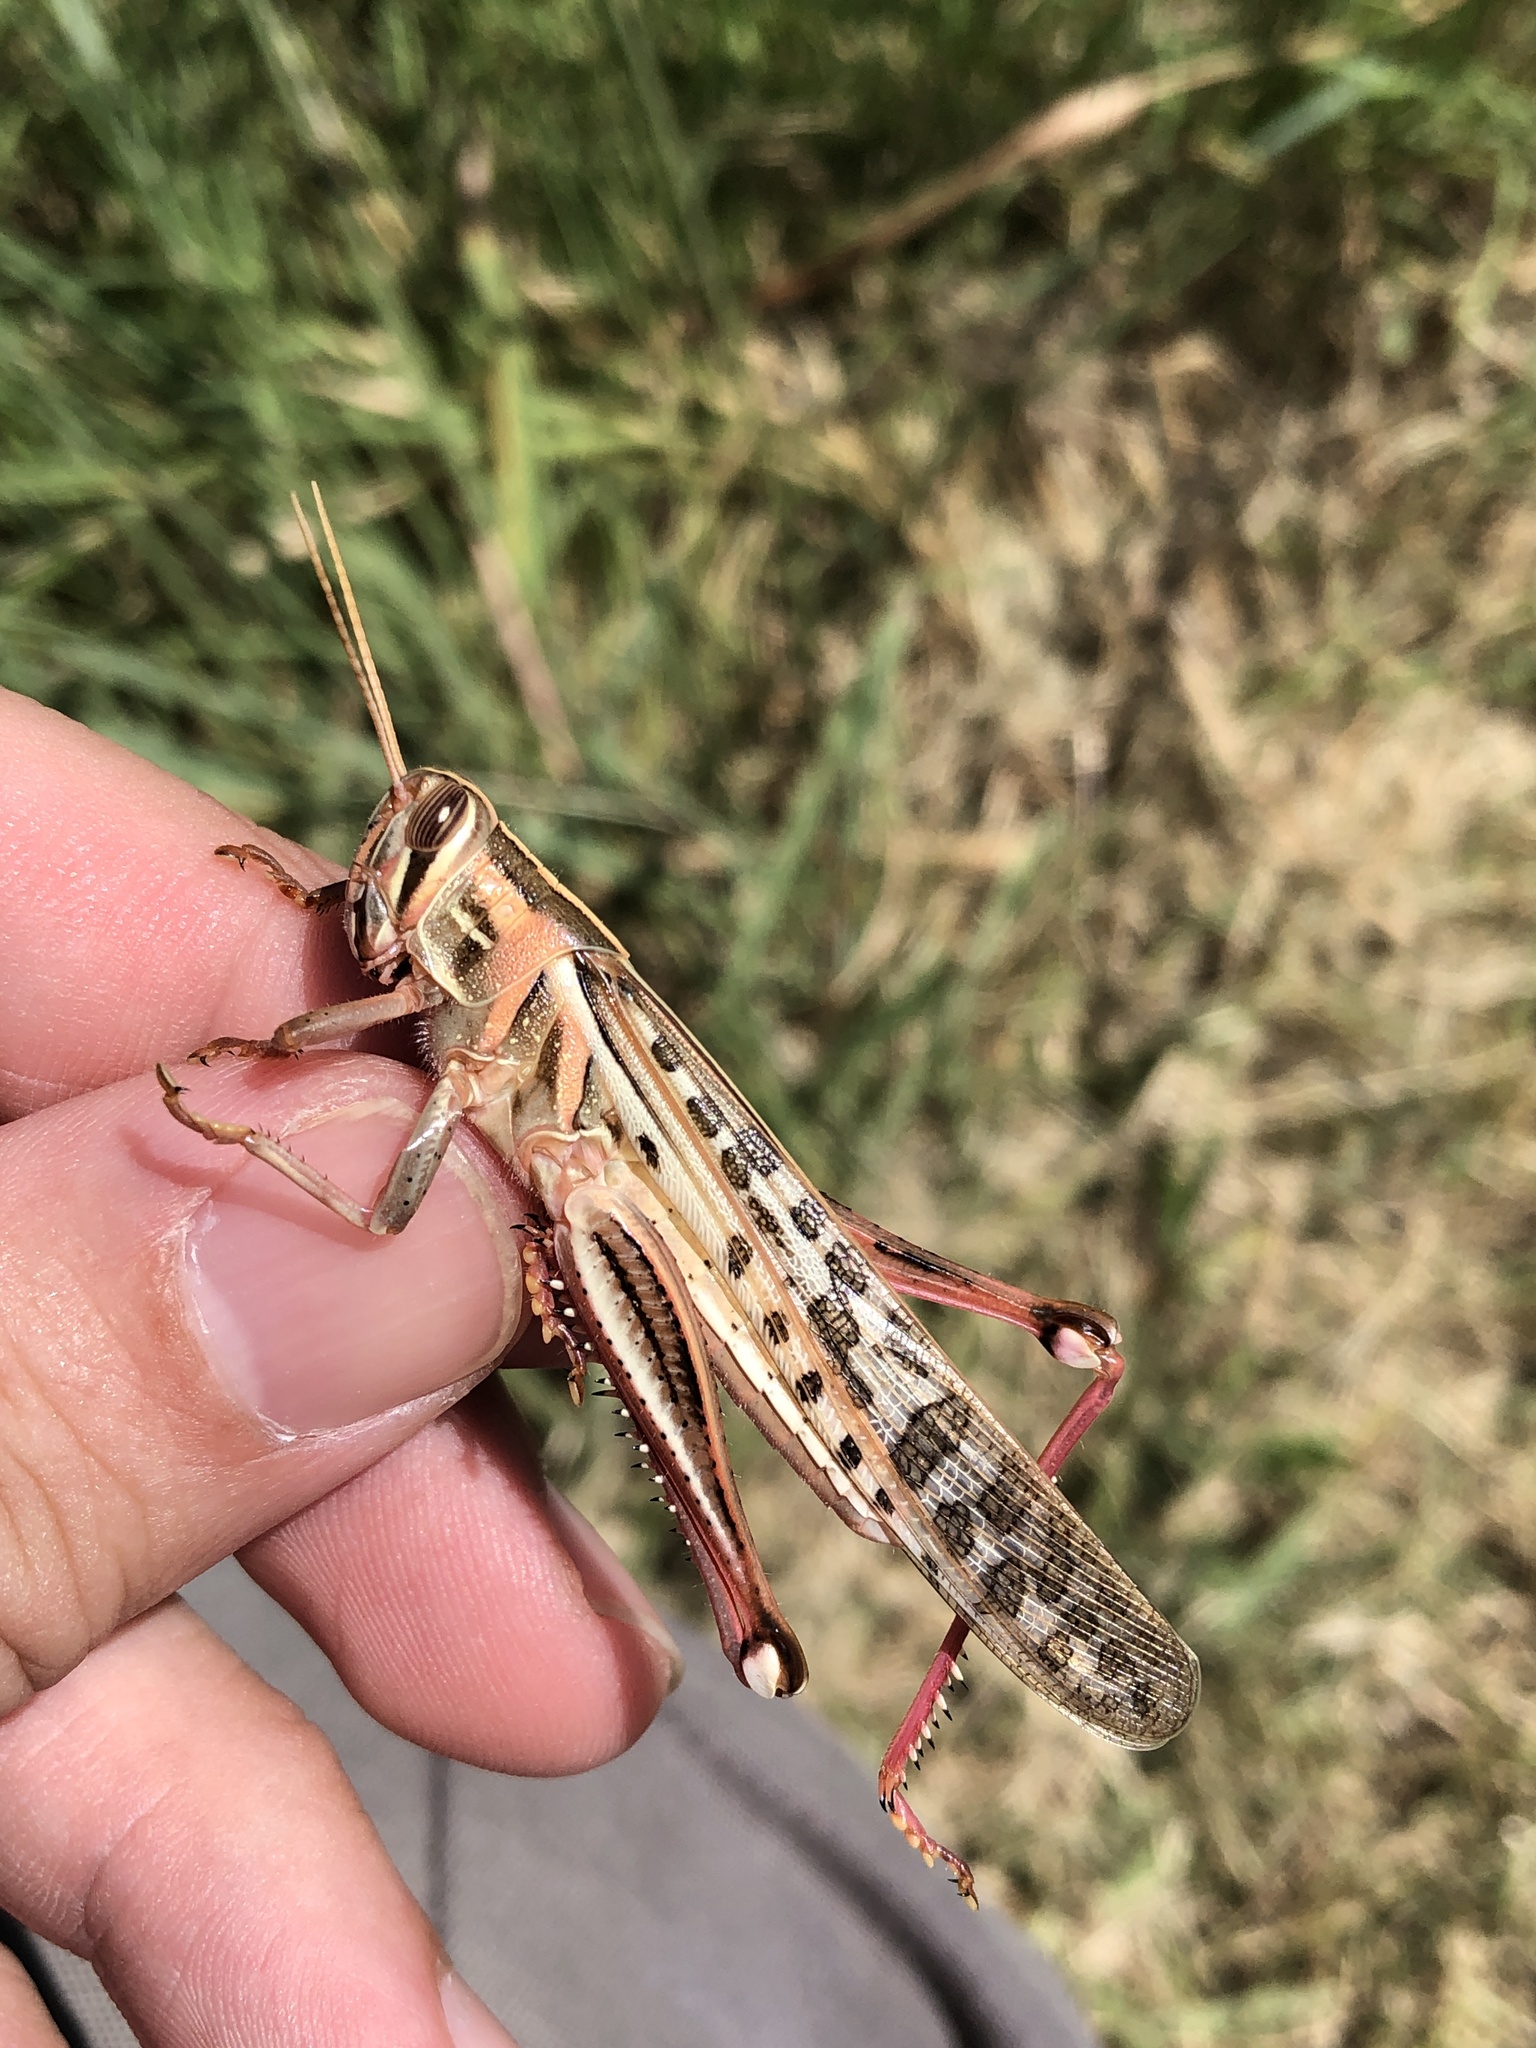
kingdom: Animalia
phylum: Arthropoda
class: Insecta
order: Orthoptera
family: Acrididae
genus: Schistocerca
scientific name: Schistocerca americana
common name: American bird locust
